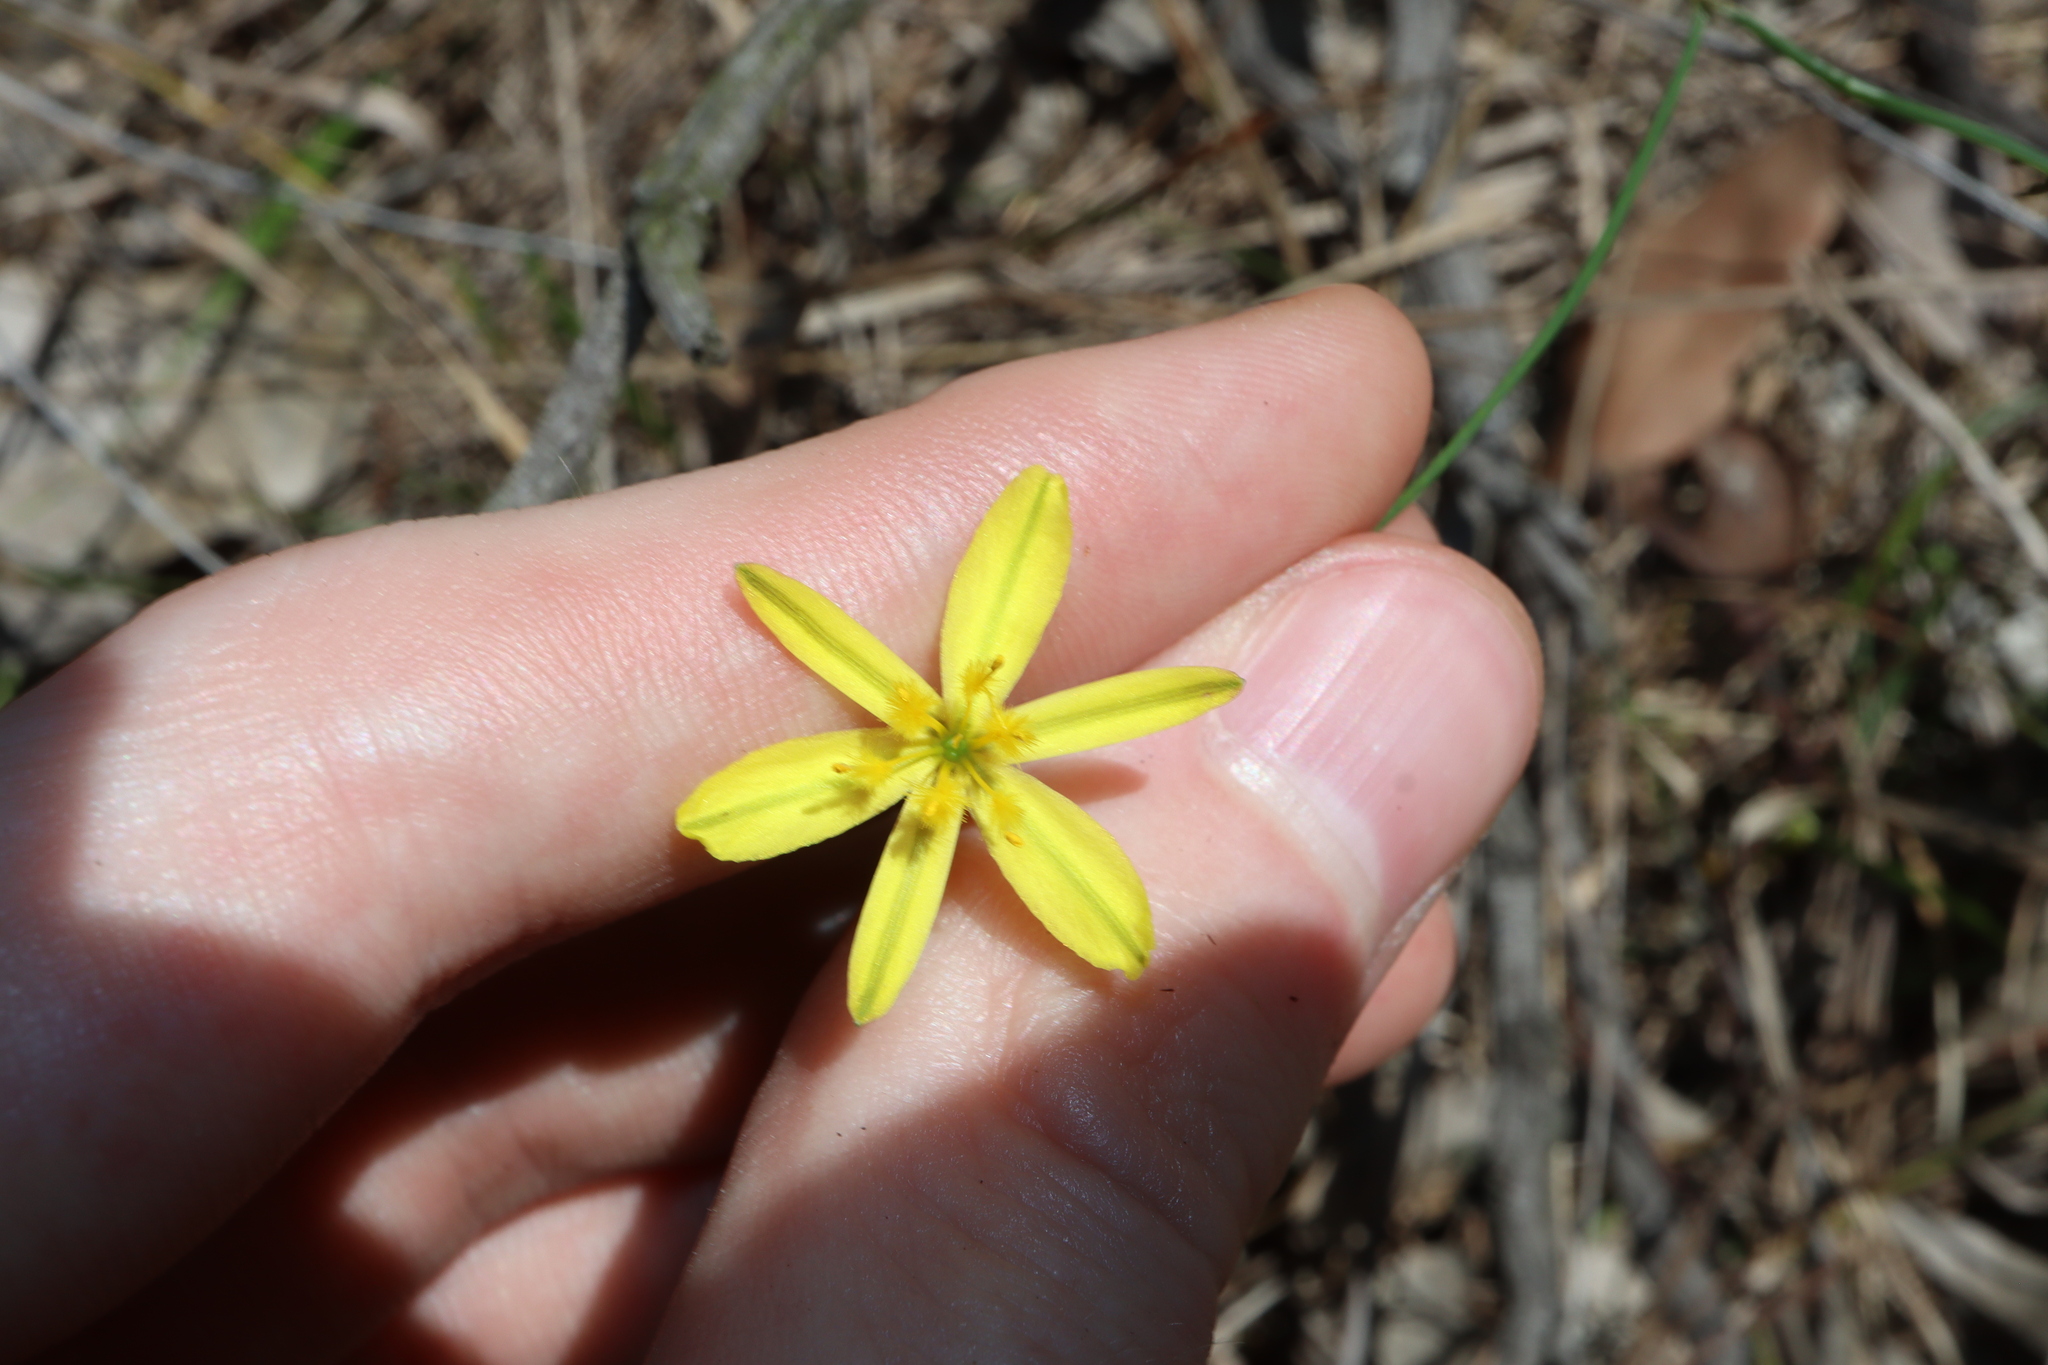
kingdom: Plantae
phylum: Tracheophyta
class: Liliopsida
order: Asparagales
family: Asphodelaceae
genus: Tricoryne
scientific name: Tricoryne elatior
